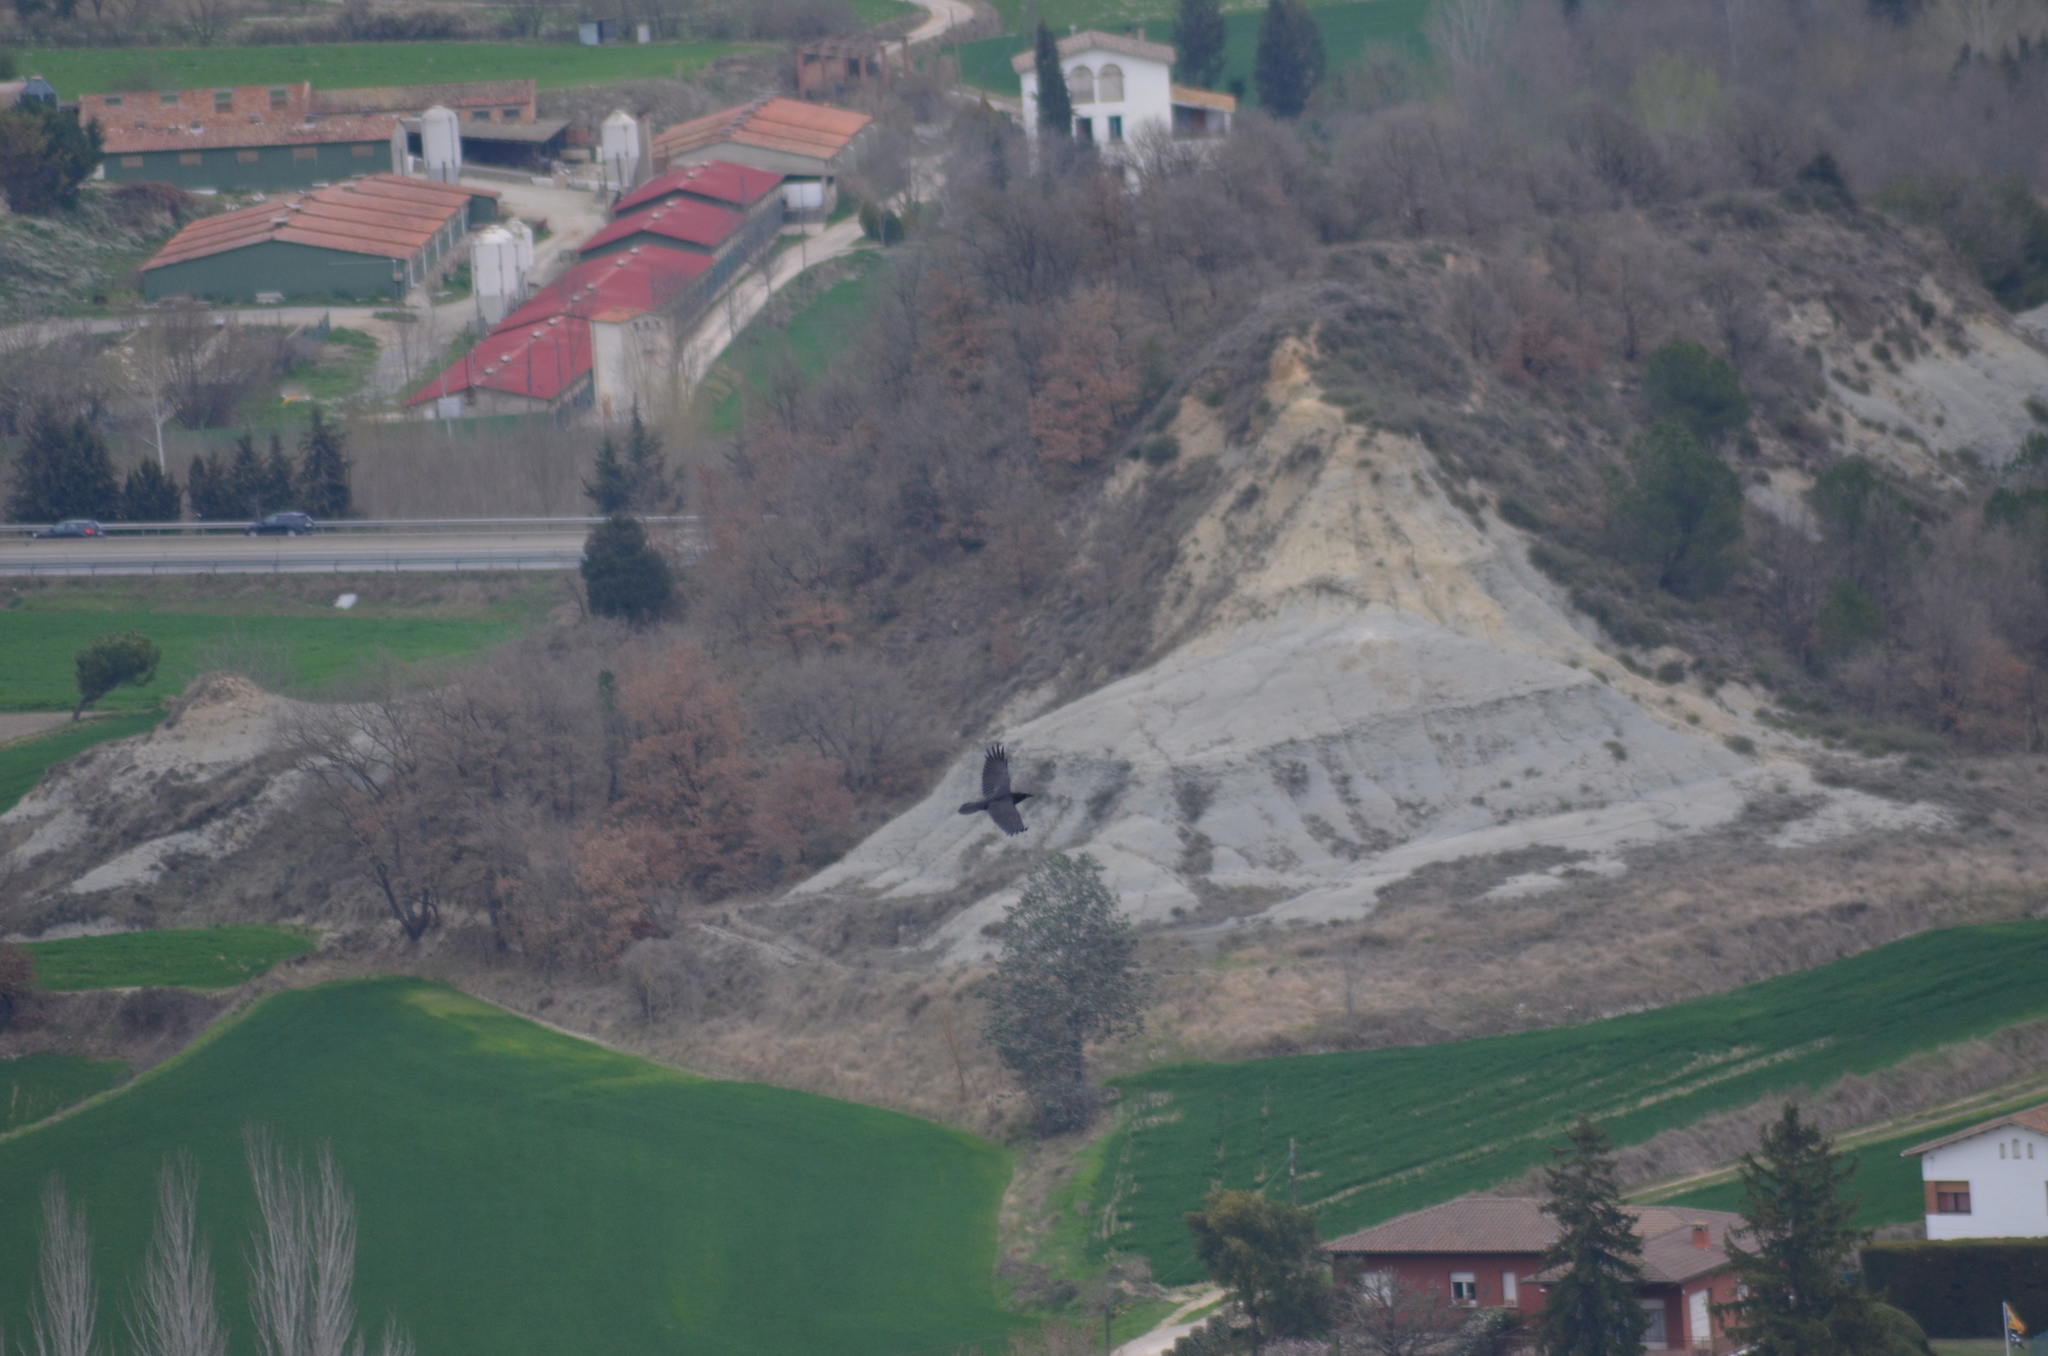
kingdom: Animalia
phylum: Chordata
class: Aves
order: Passeriformes
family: Corvidae
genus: Corvus
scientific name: Corvus corax
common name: Common raven
